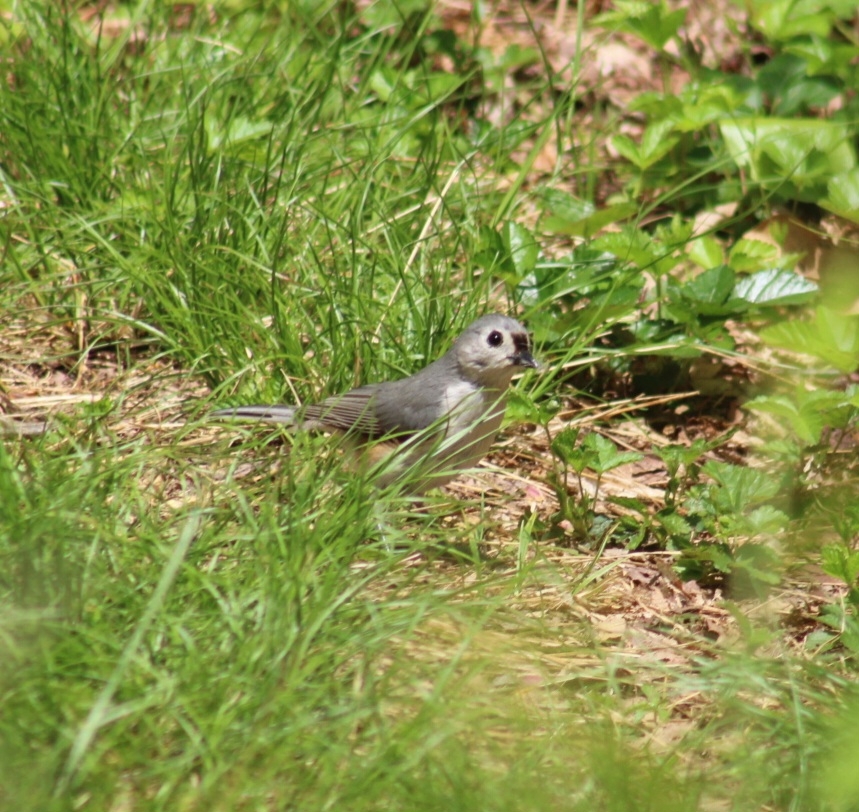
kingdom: Animalia
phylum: Chordata
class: Aves
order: Passeriformes
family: Paridae
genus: Baeolophus
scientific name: Baeolophus bicolor
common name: Tufted titmouse
